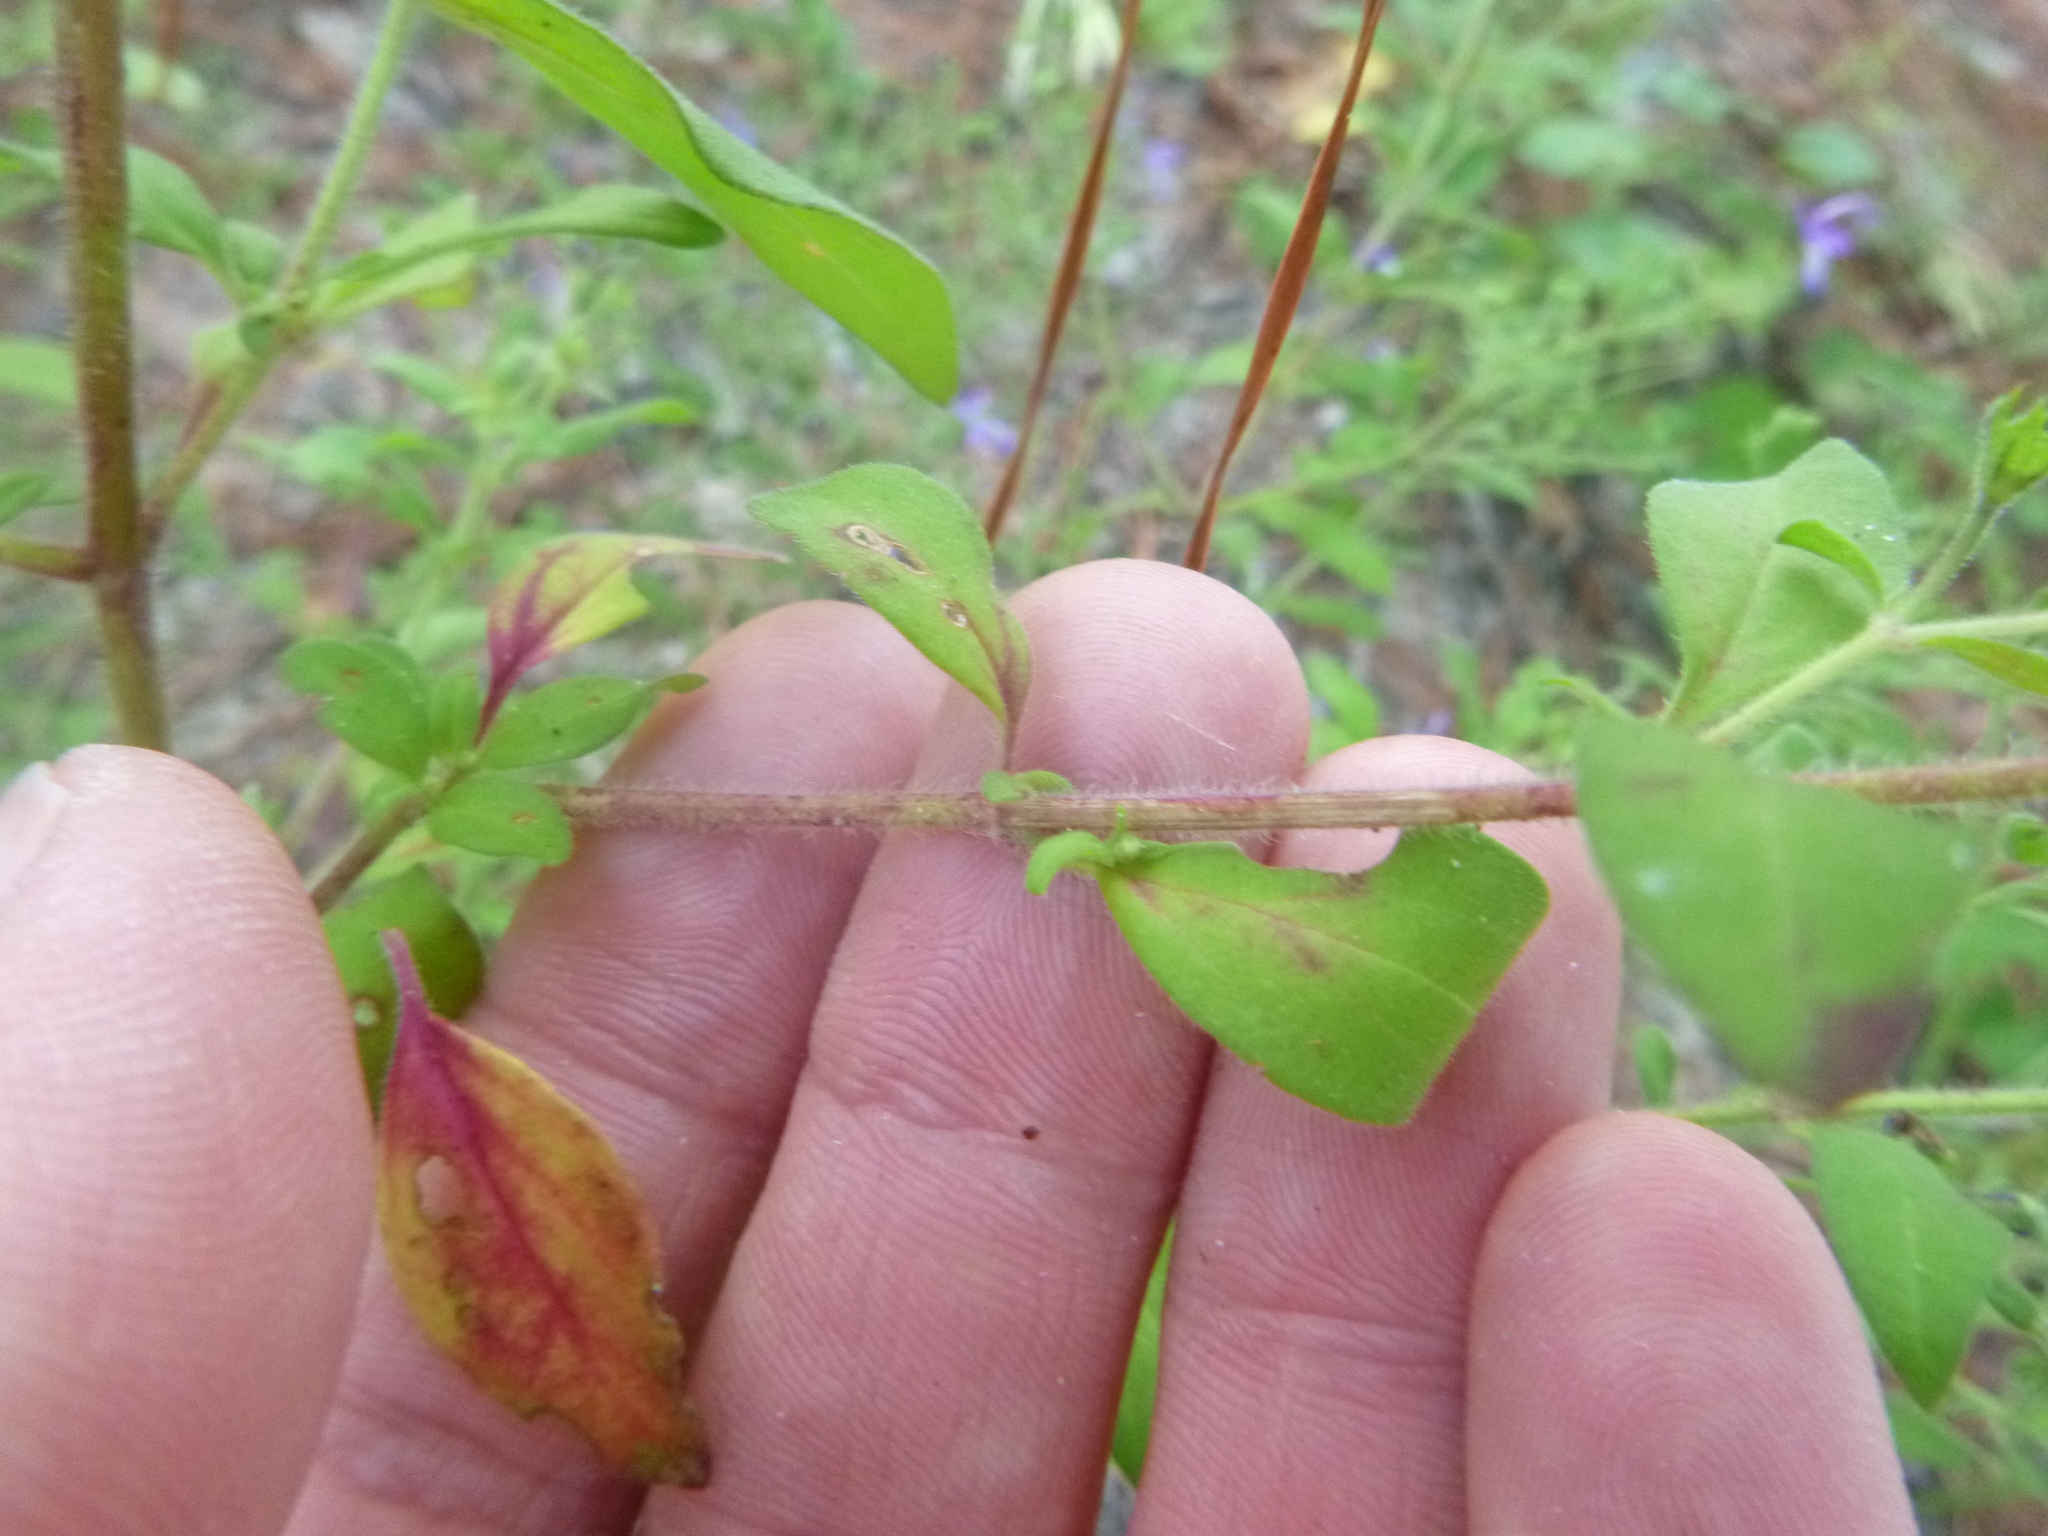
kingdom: Plantae
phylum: Tracheophyta
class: Magnoliopsida
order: Lamiales
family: Lamiaceae
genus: Trichostema
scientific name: Trichostema dichotomum
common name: Bastard pennyroyal
